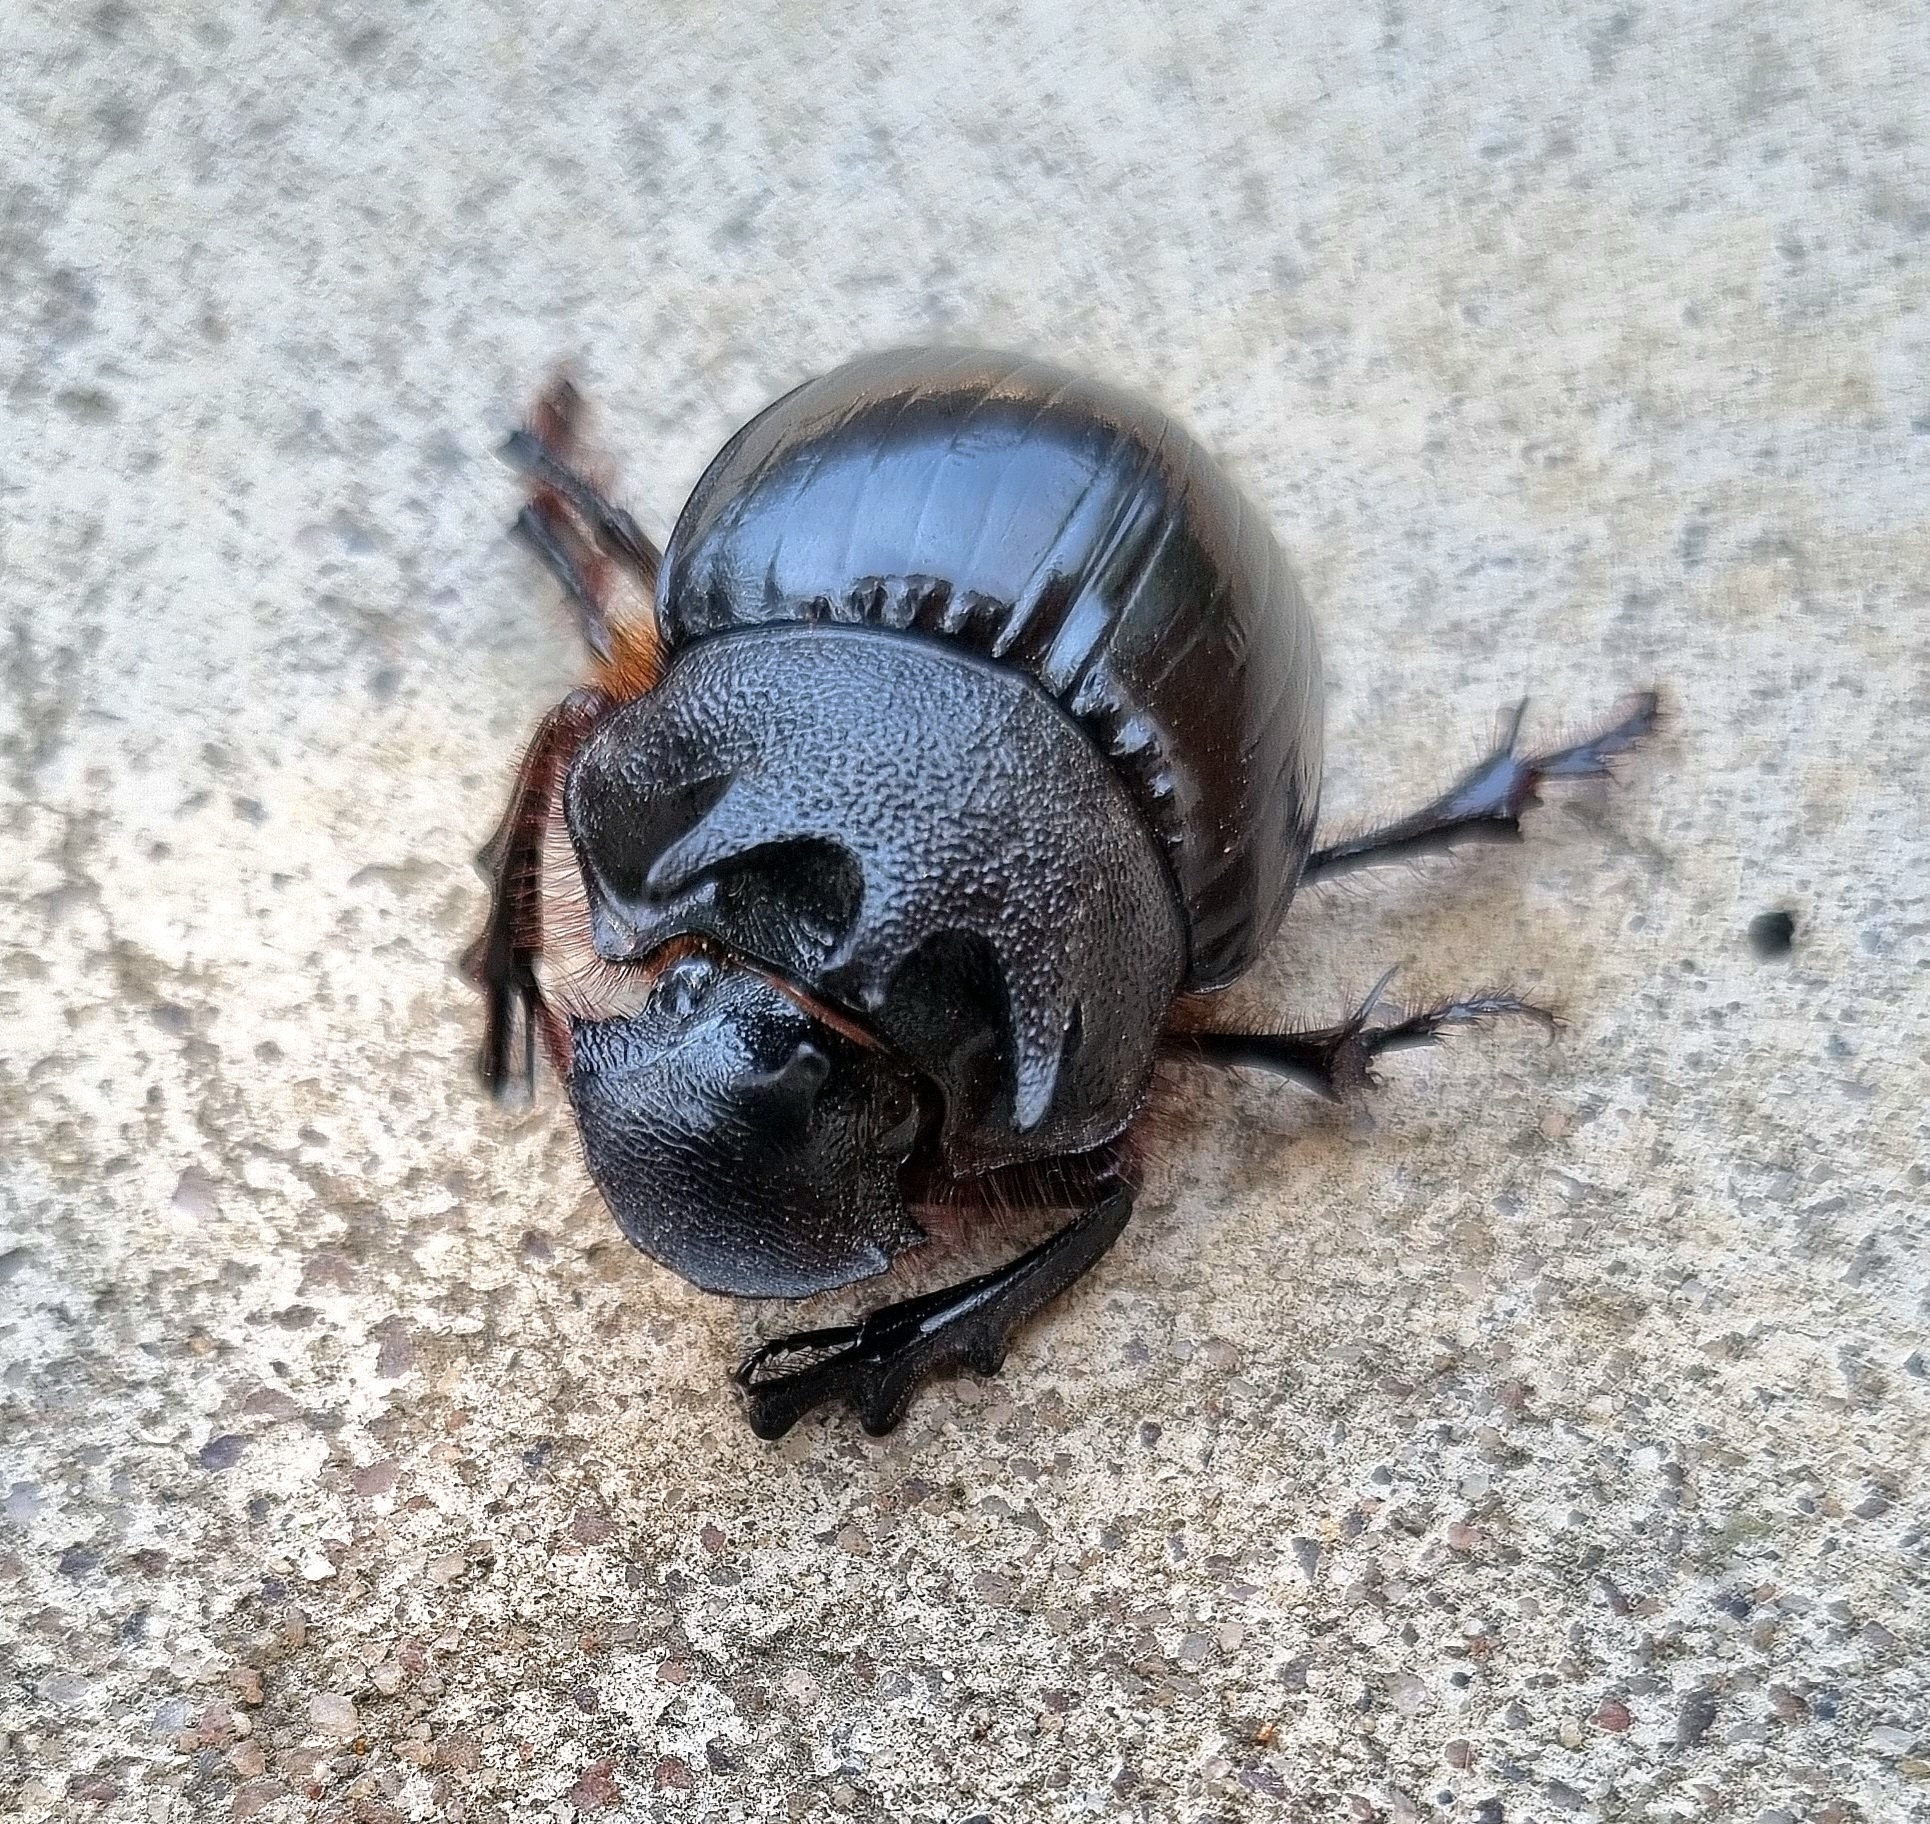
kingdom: Animalia
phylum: Arthropoda
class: Insecta
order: Coleoptera
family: Scarabaeidae
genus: Heliocopris
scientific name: Heliocopris neptunus
